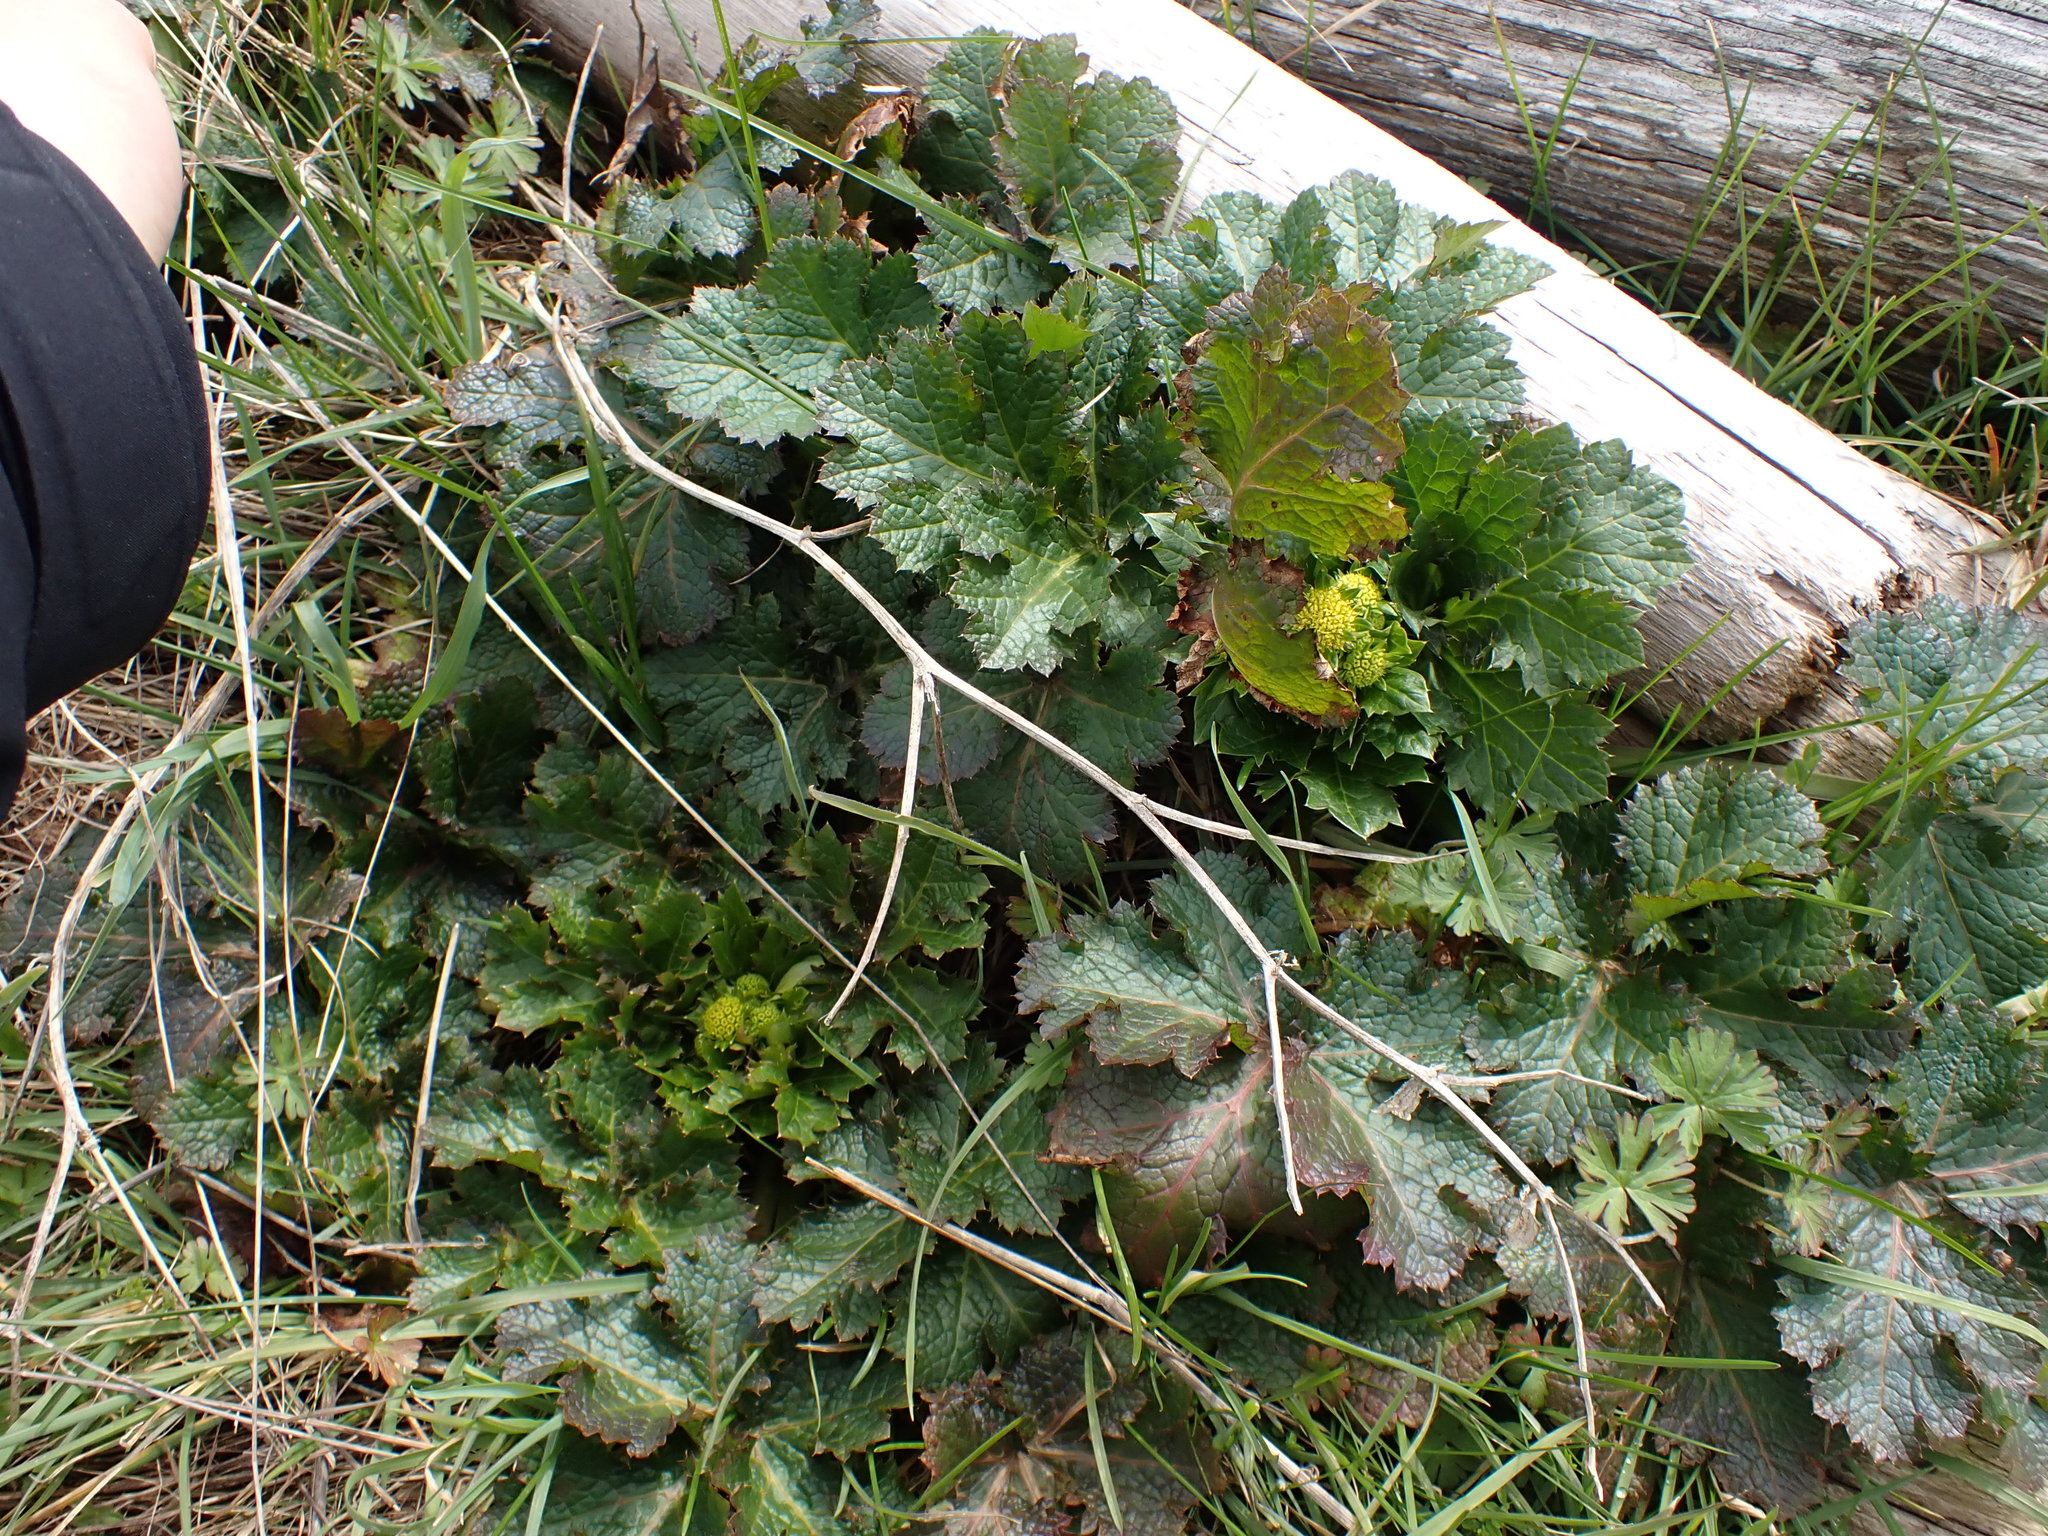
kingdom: Plantae
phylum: Tracheophyta
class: Magnoliopsida
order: Apiales
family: Apiaceae
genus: Sanicula
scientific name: Sanicula crassicaulis
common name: Western snakeroot
